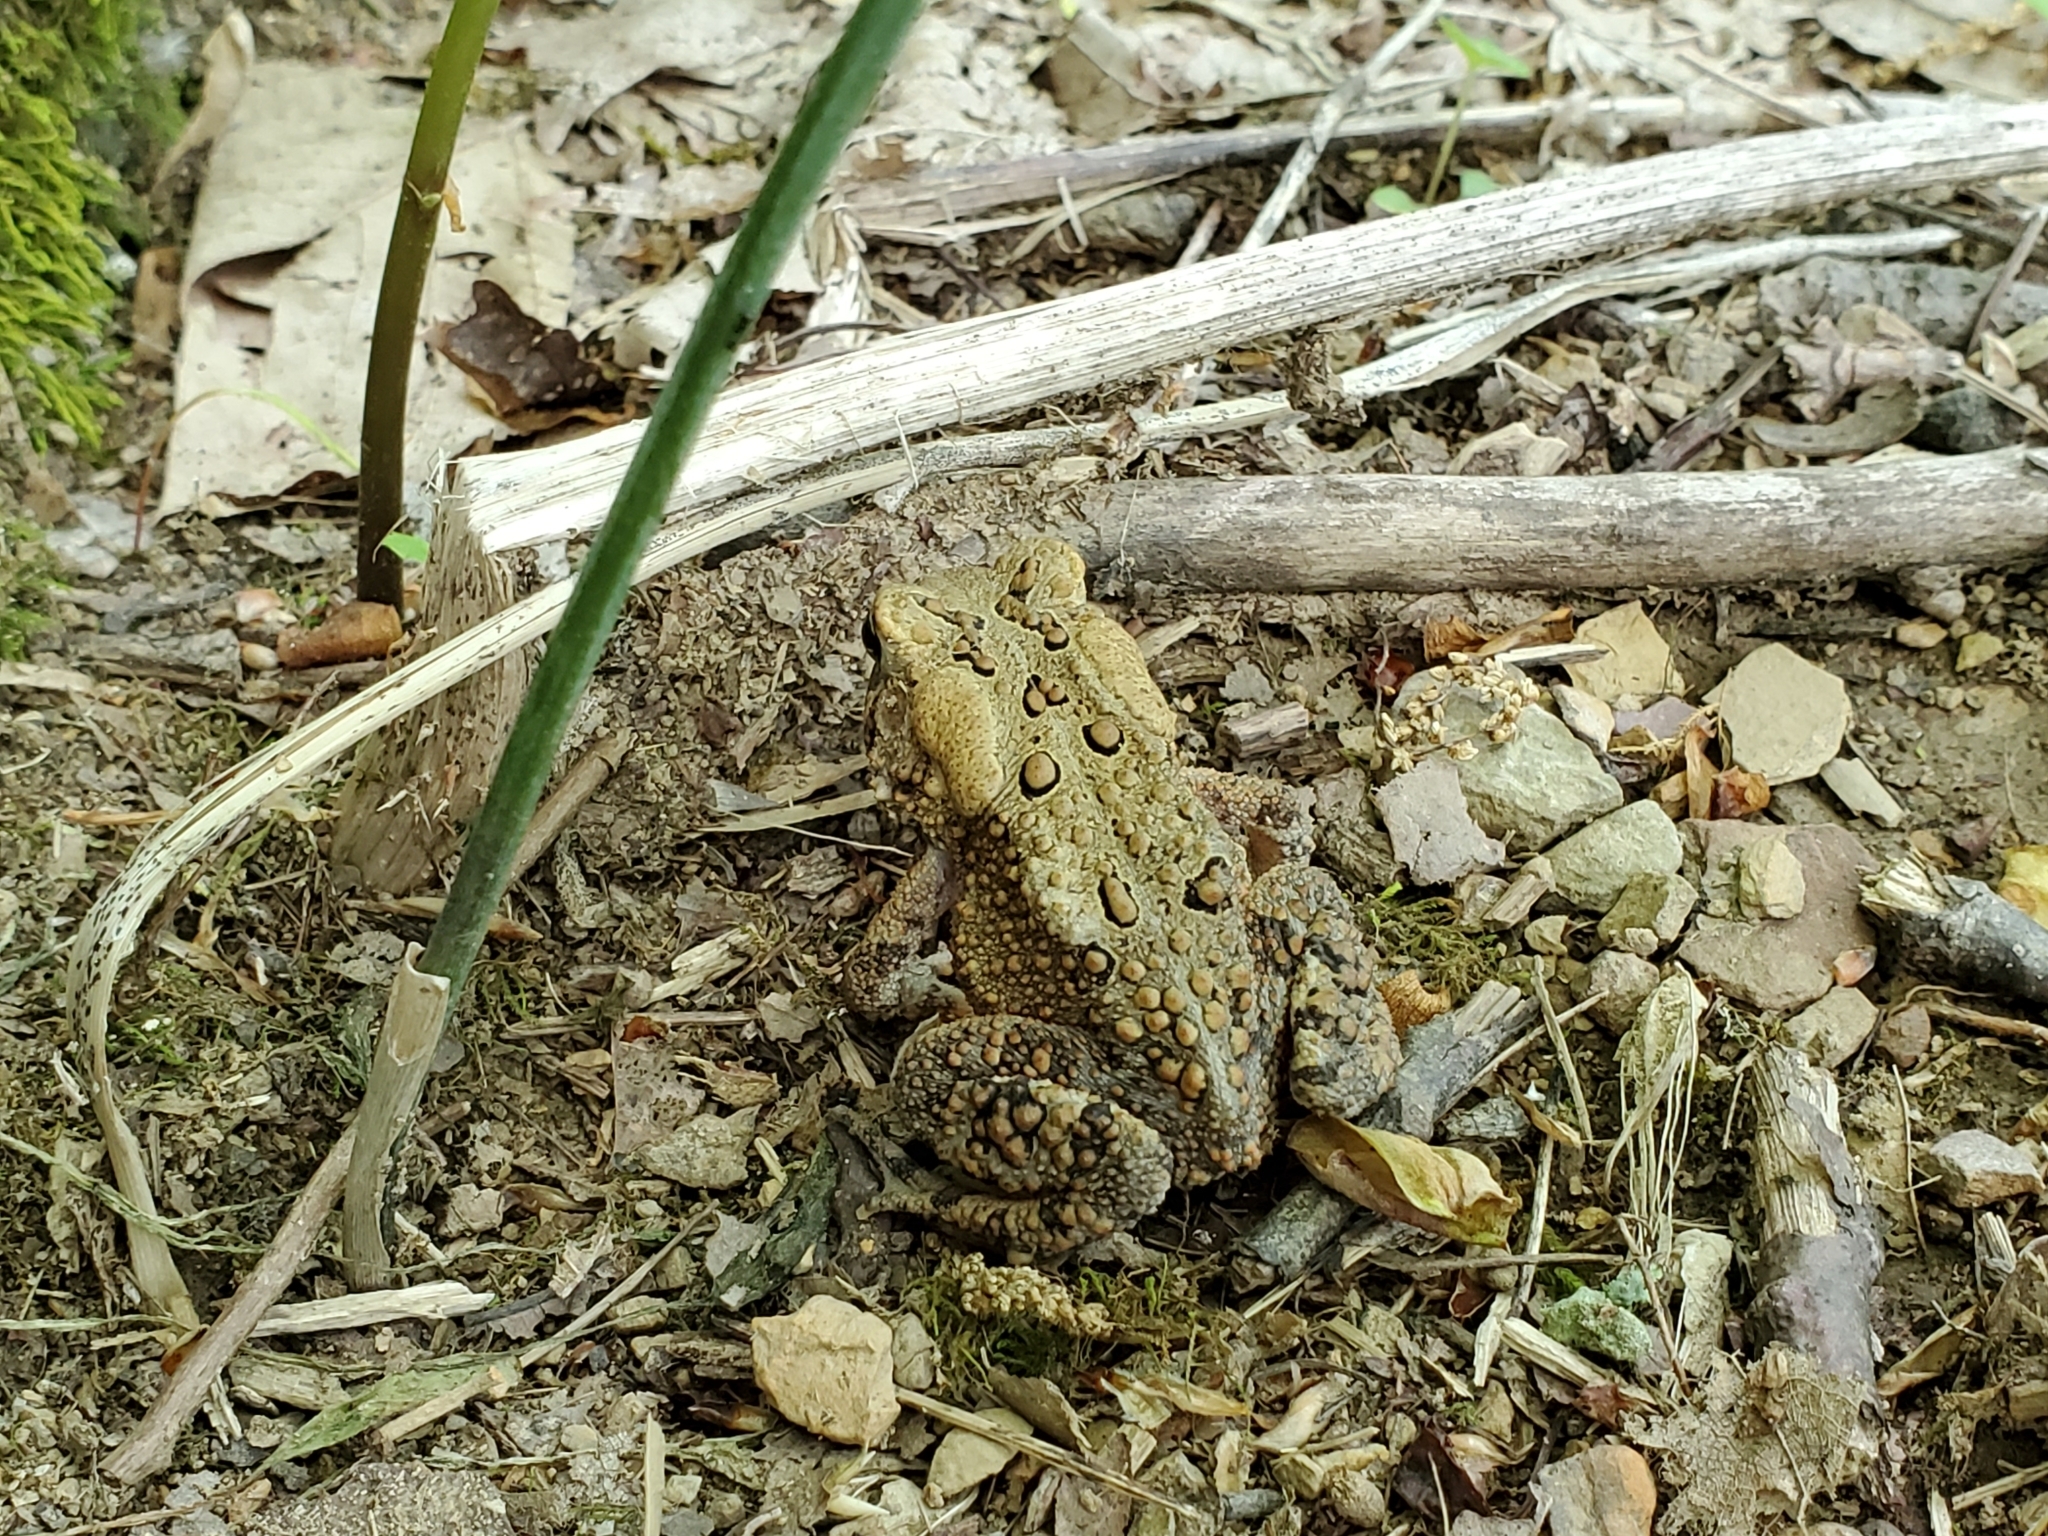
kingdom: Animalia
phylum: Chordata
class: Amphibia
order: Anura
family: Bufonidae
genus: Anaxyrus
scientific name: Anaxyrus americanus
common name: American toad
